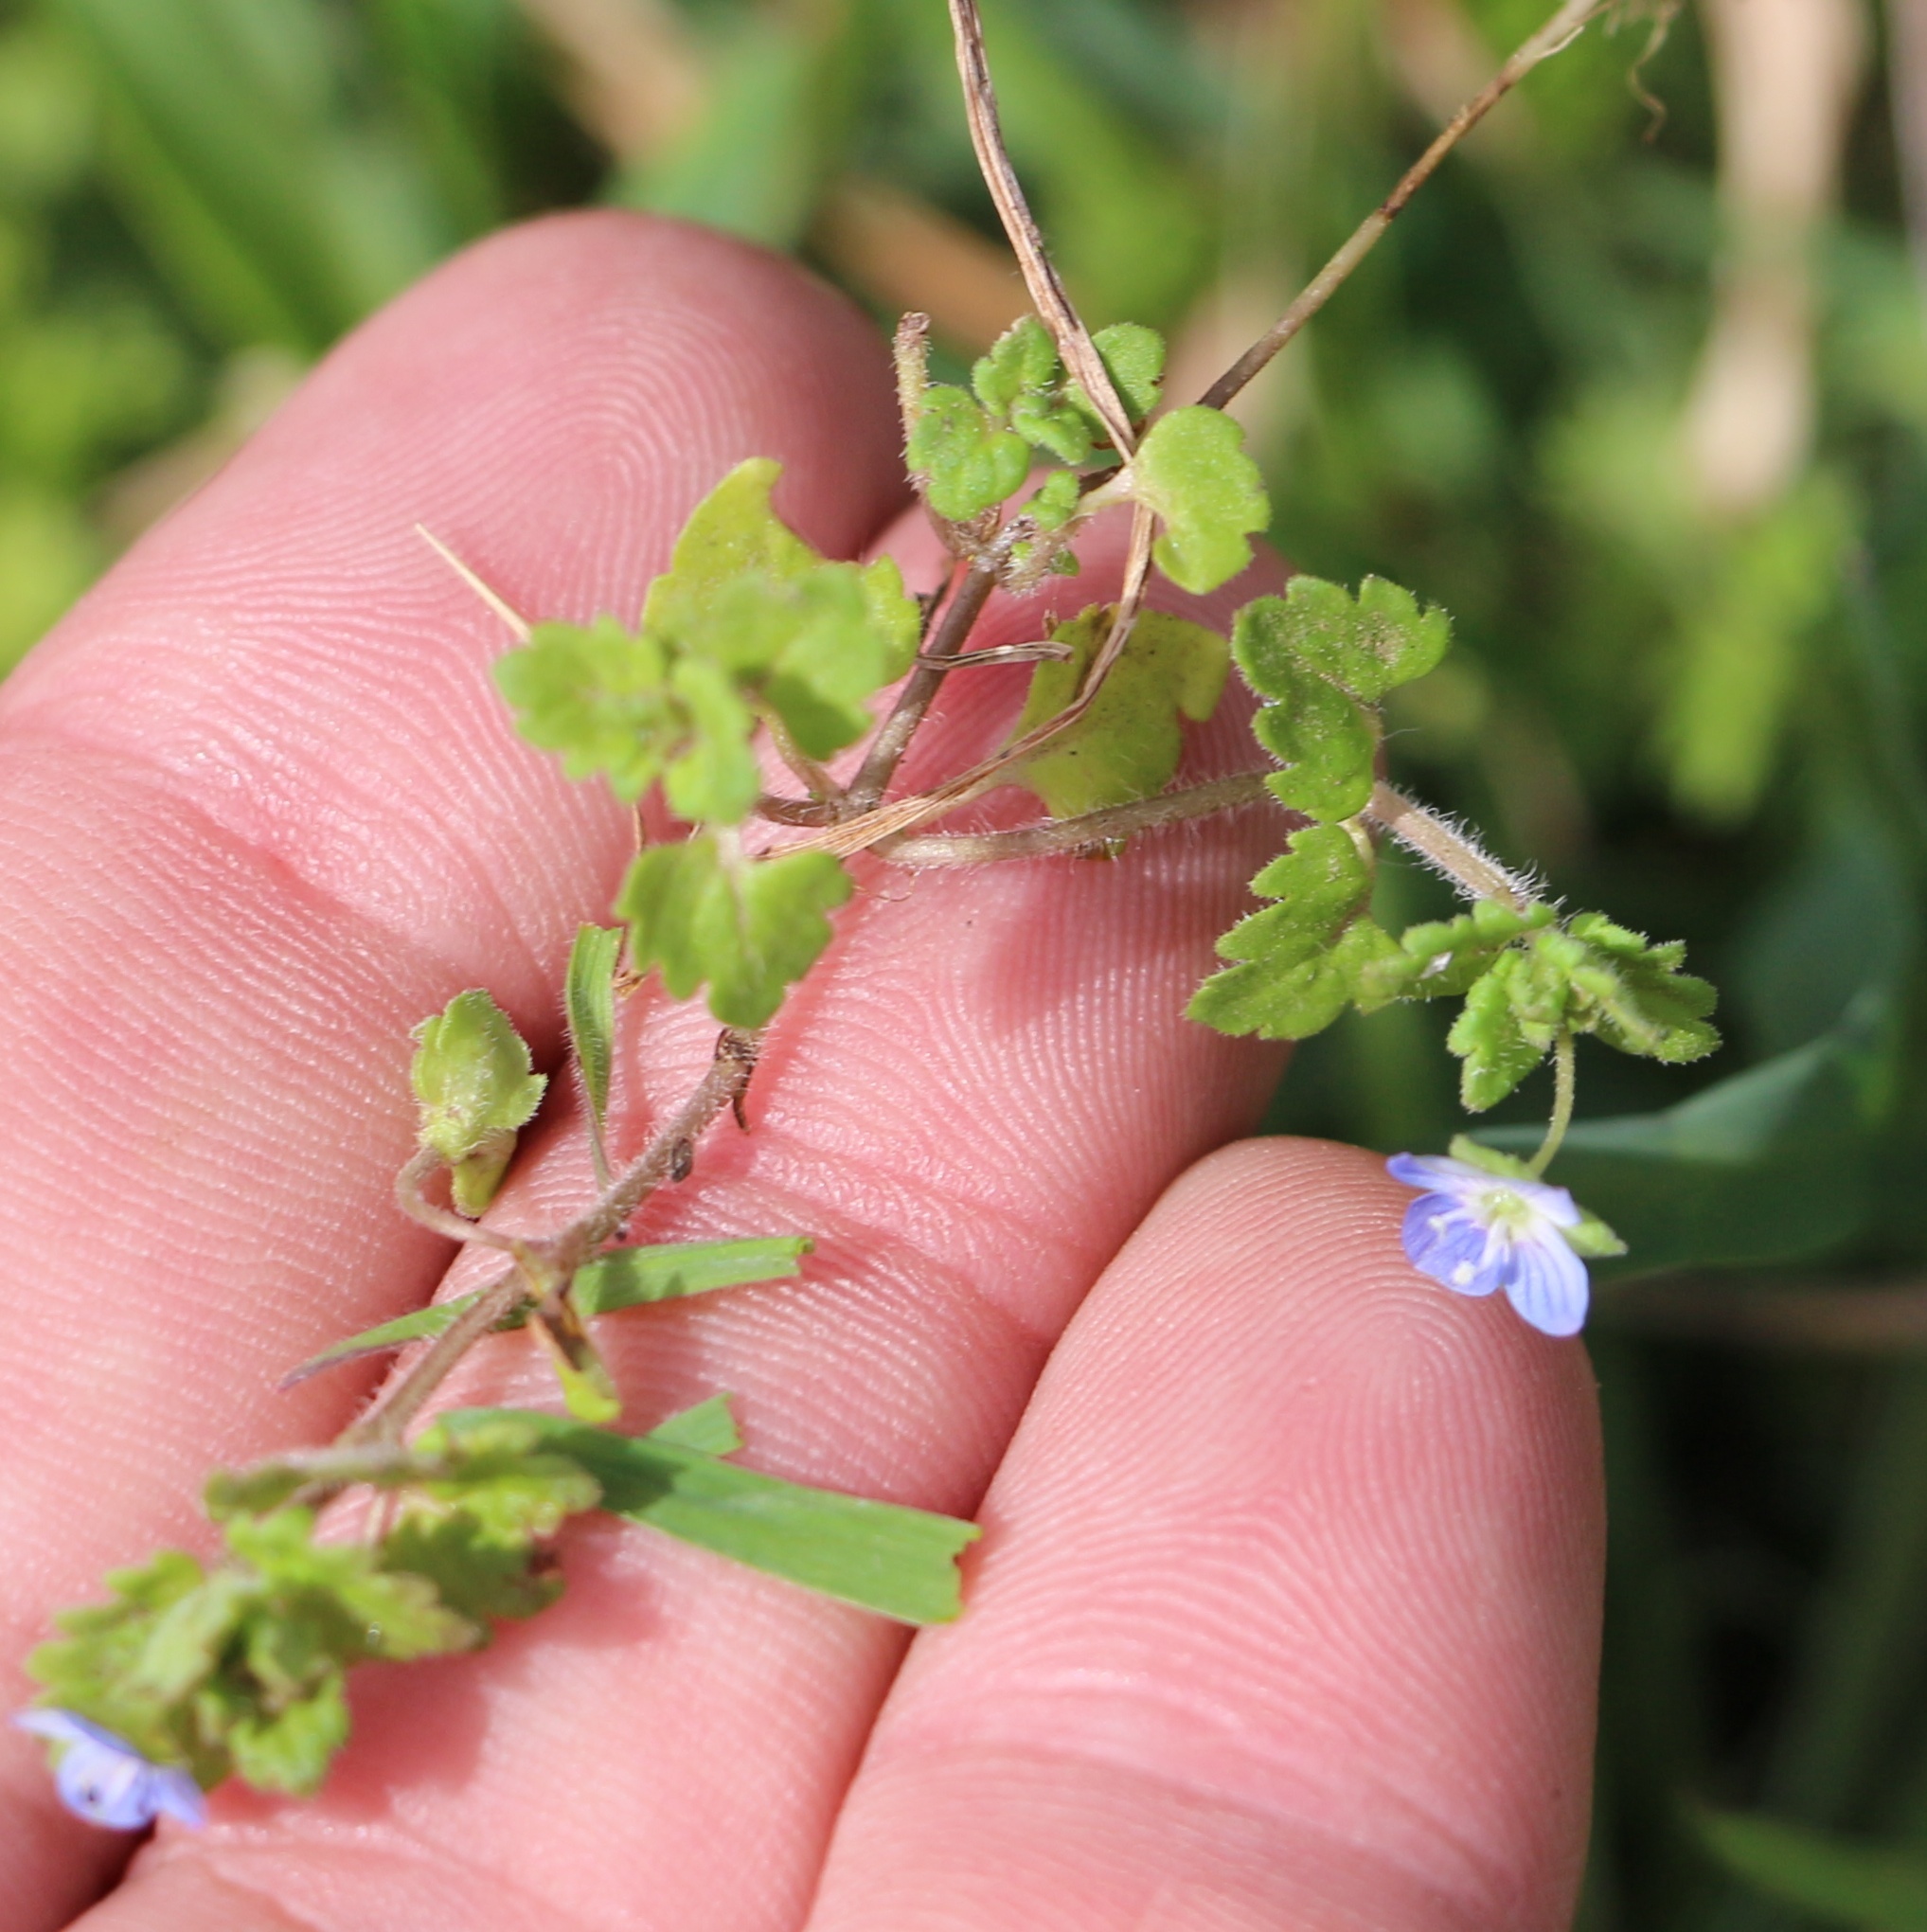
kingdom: Plantae
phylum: Tracheophyta
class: Magnoliopsida
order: Lamiales
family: Plantaginaceae
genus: Veronica
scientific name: Veronica polita
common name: Grey field-speedwell
